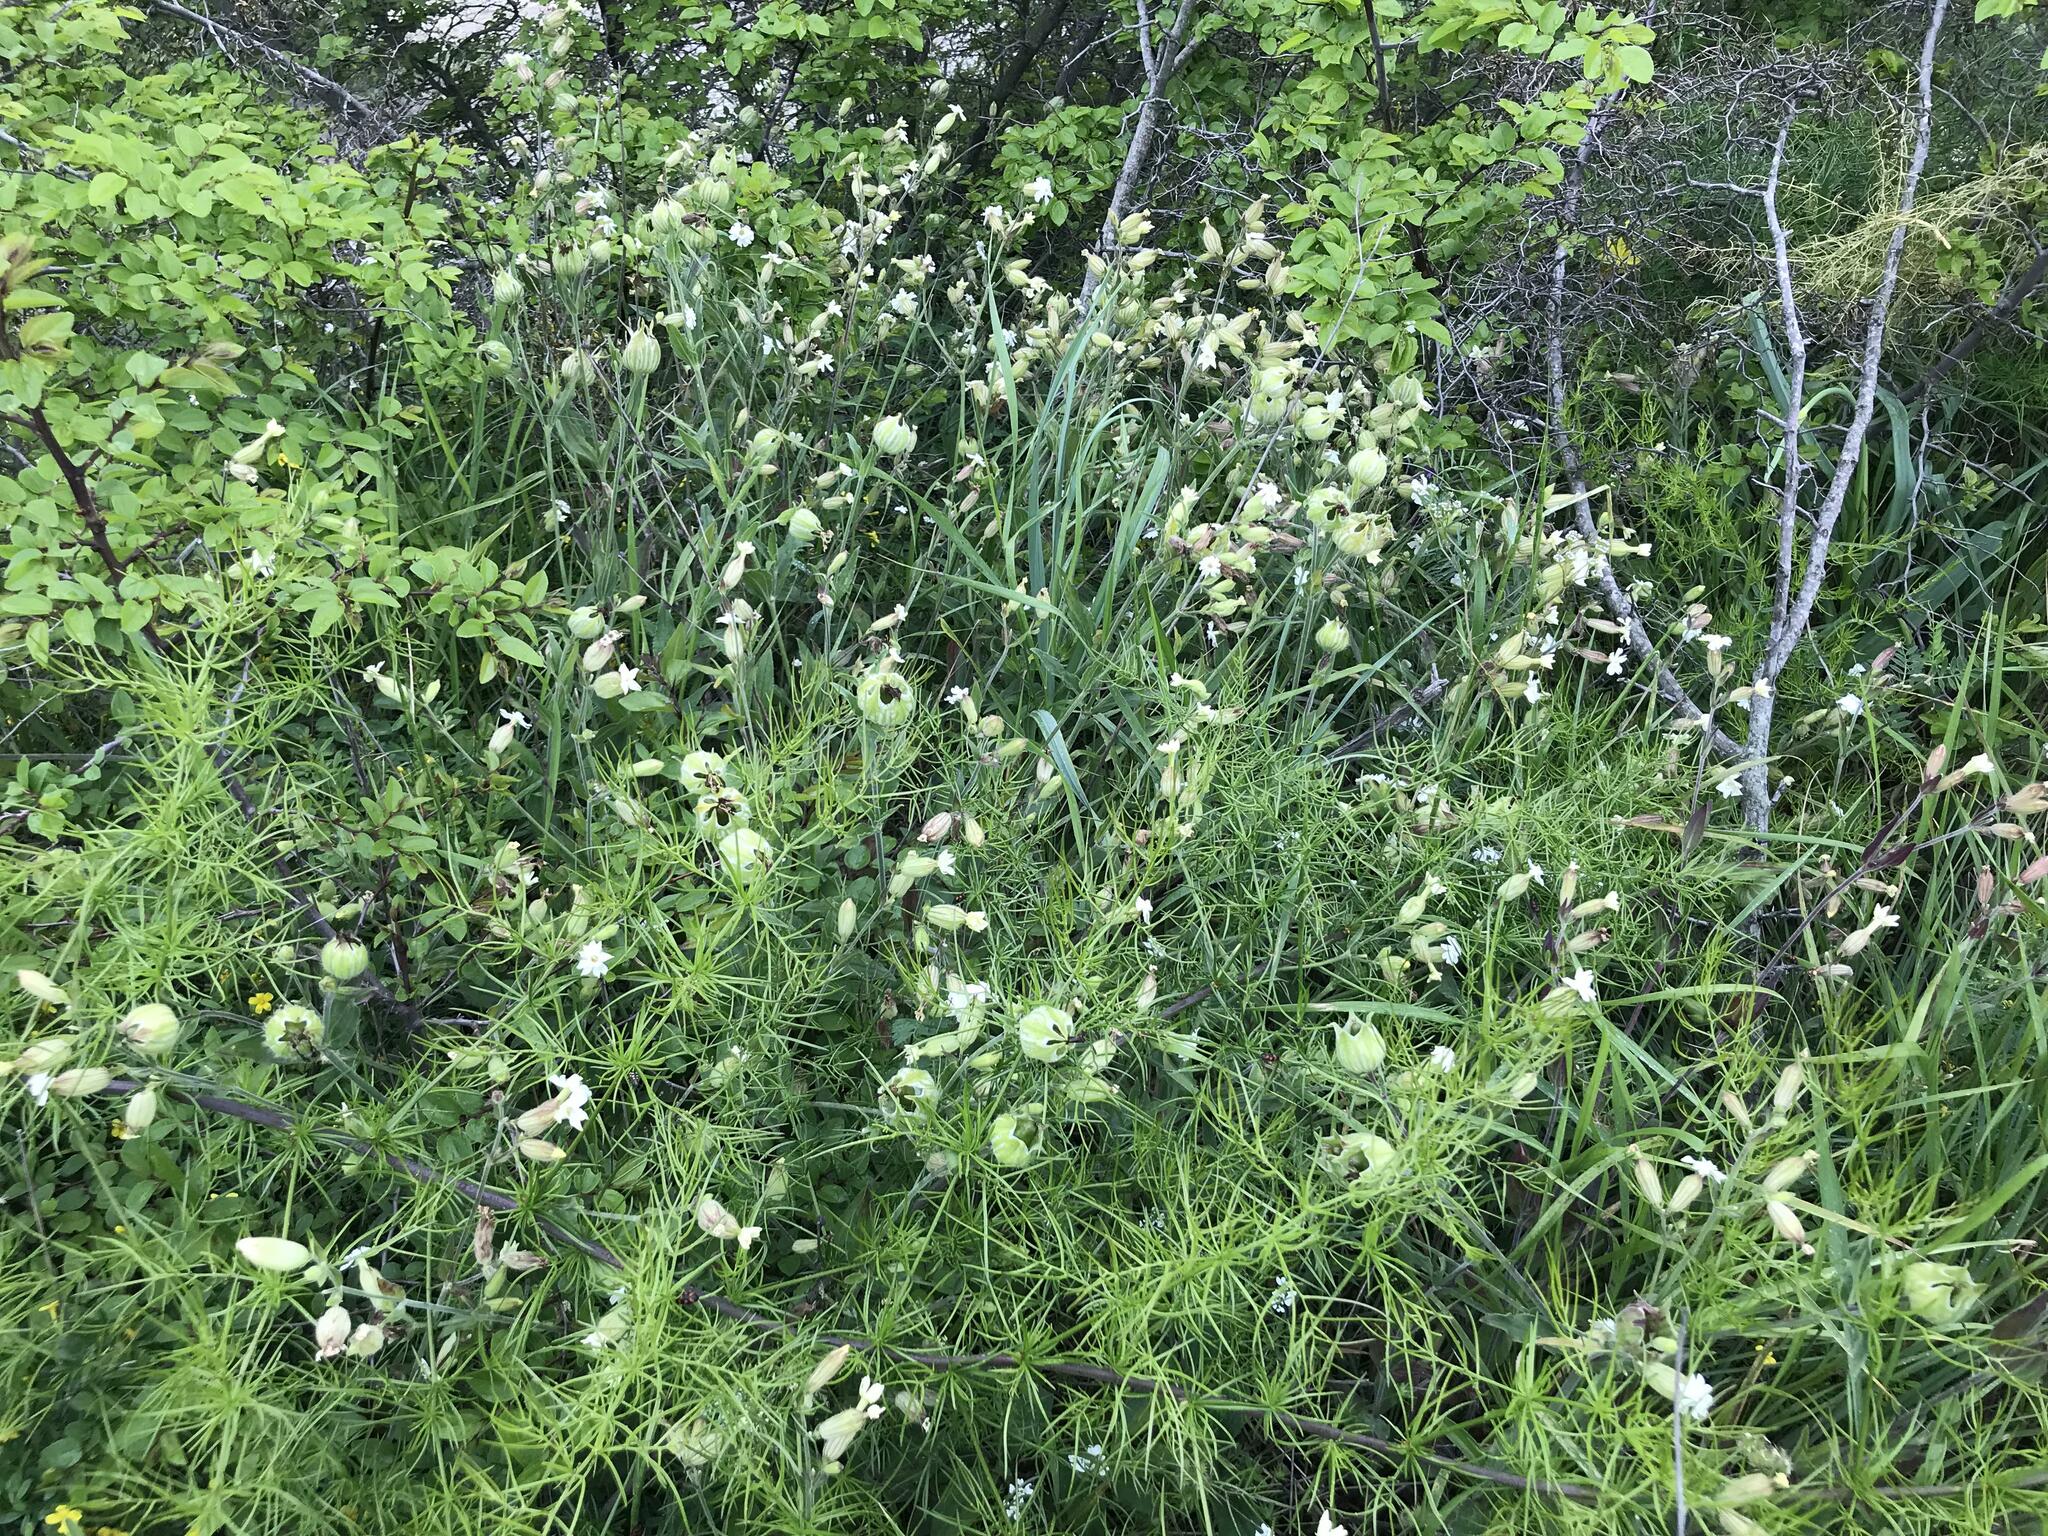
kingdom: Plantae
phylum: Tracheophyta
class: Magnoliopsida
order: Caryophyllales
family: Caryophyllaceae
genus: Silene
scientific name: Silene latifolia
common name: White campion
